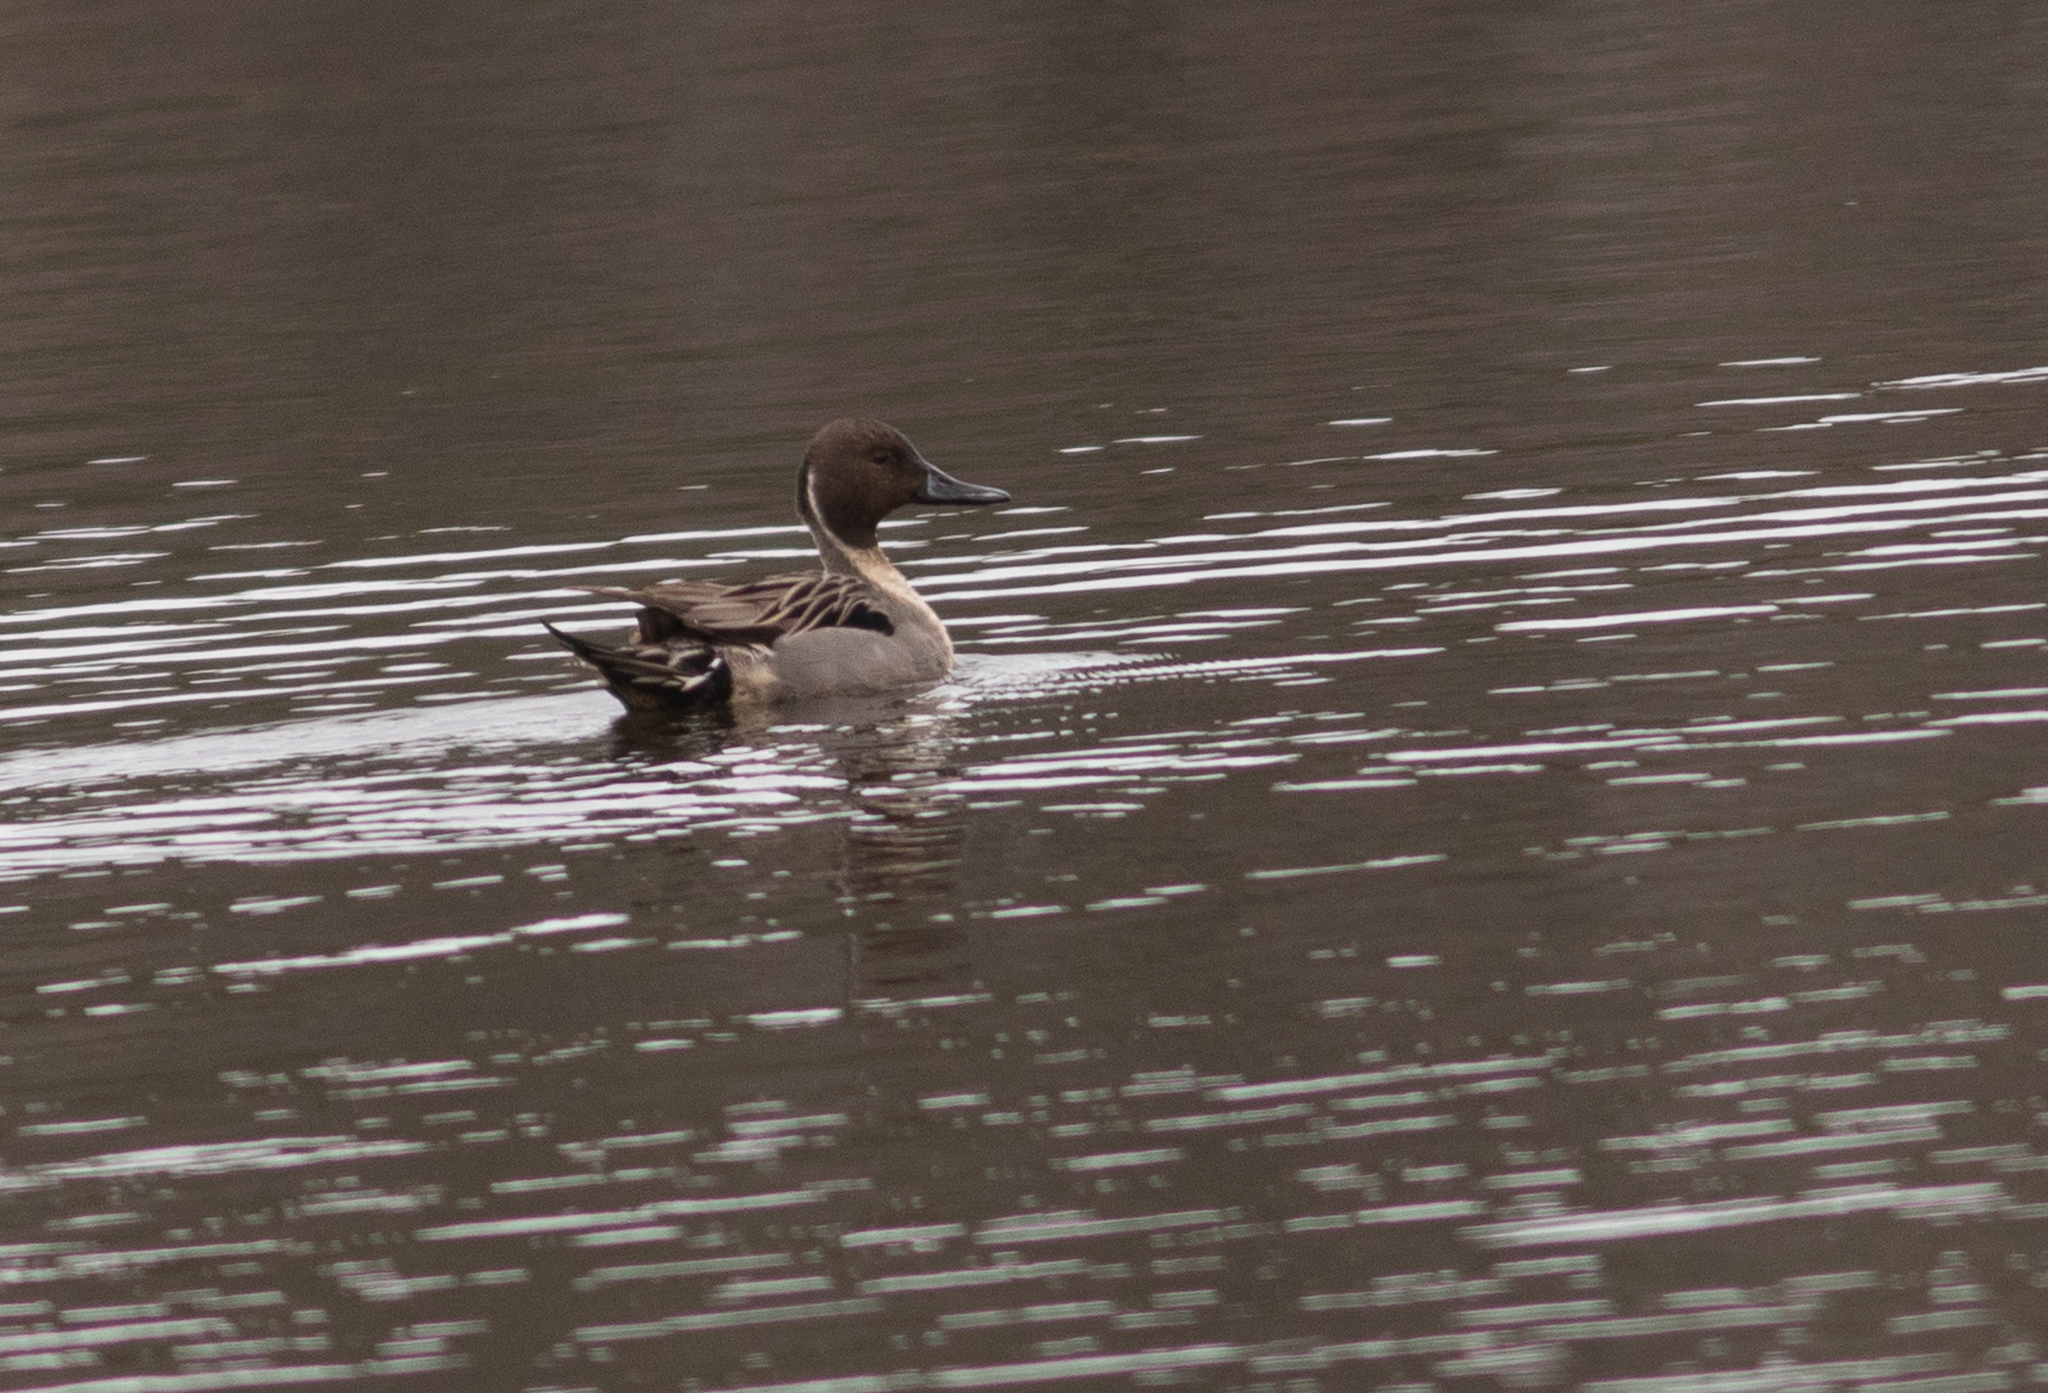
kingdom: Animalia
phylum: Chordata
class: Aves
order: Anseriformes
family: Anatidae
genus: Anas
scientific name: Anas acuta
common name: Northern pintail
